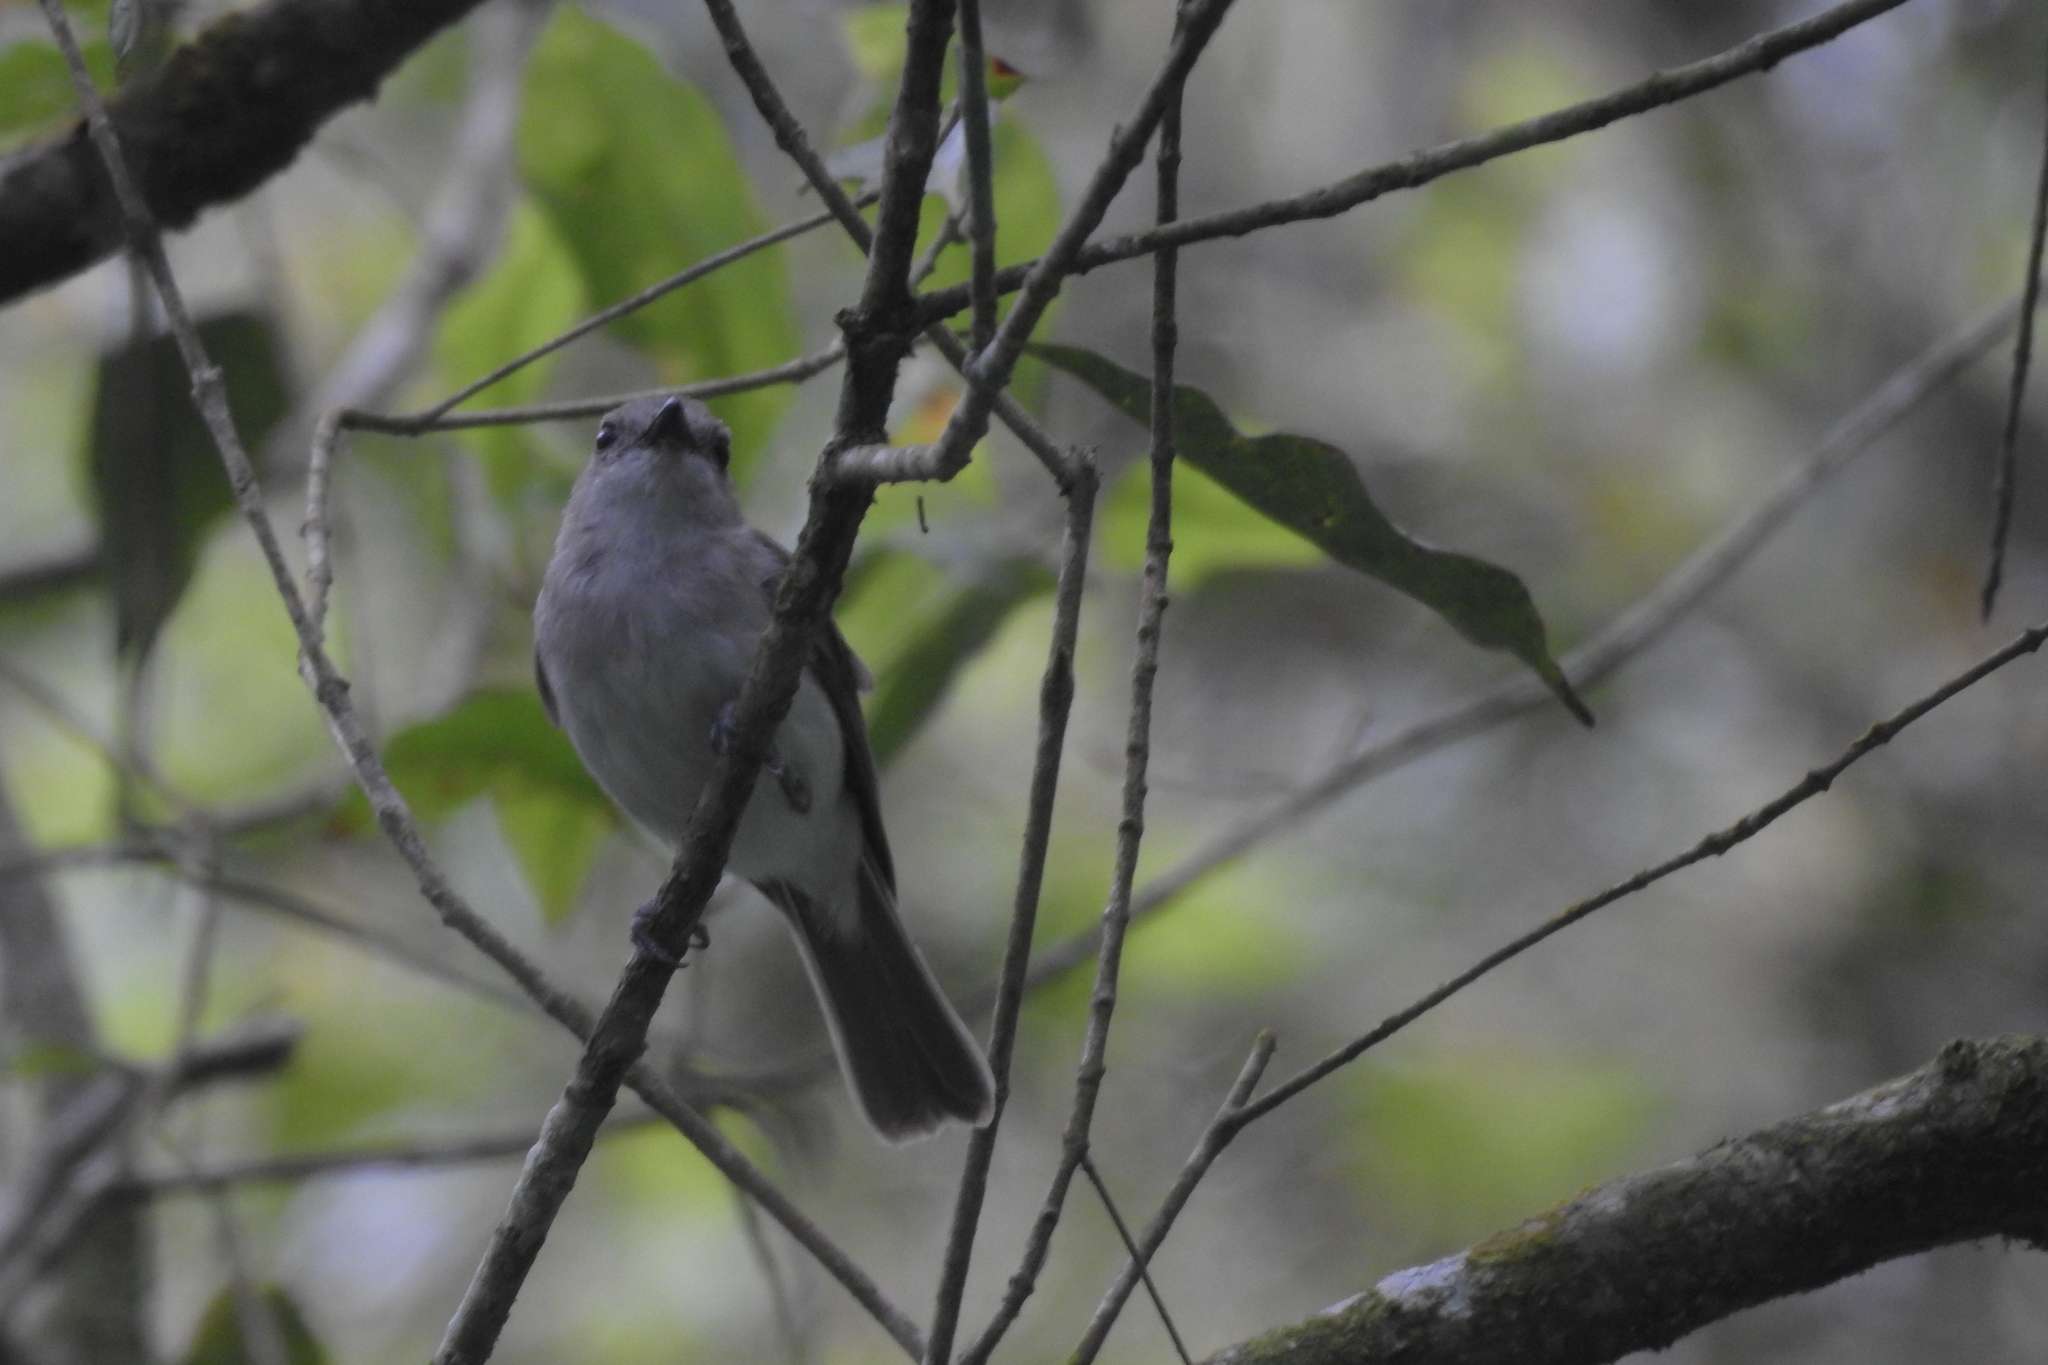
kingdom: Animalia
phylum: Chordata
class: Aves
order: Passeriformes
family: Pachycephalidae
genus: Pachycephala
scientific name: Pachycephala cinerea
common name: Mangrove whistler
